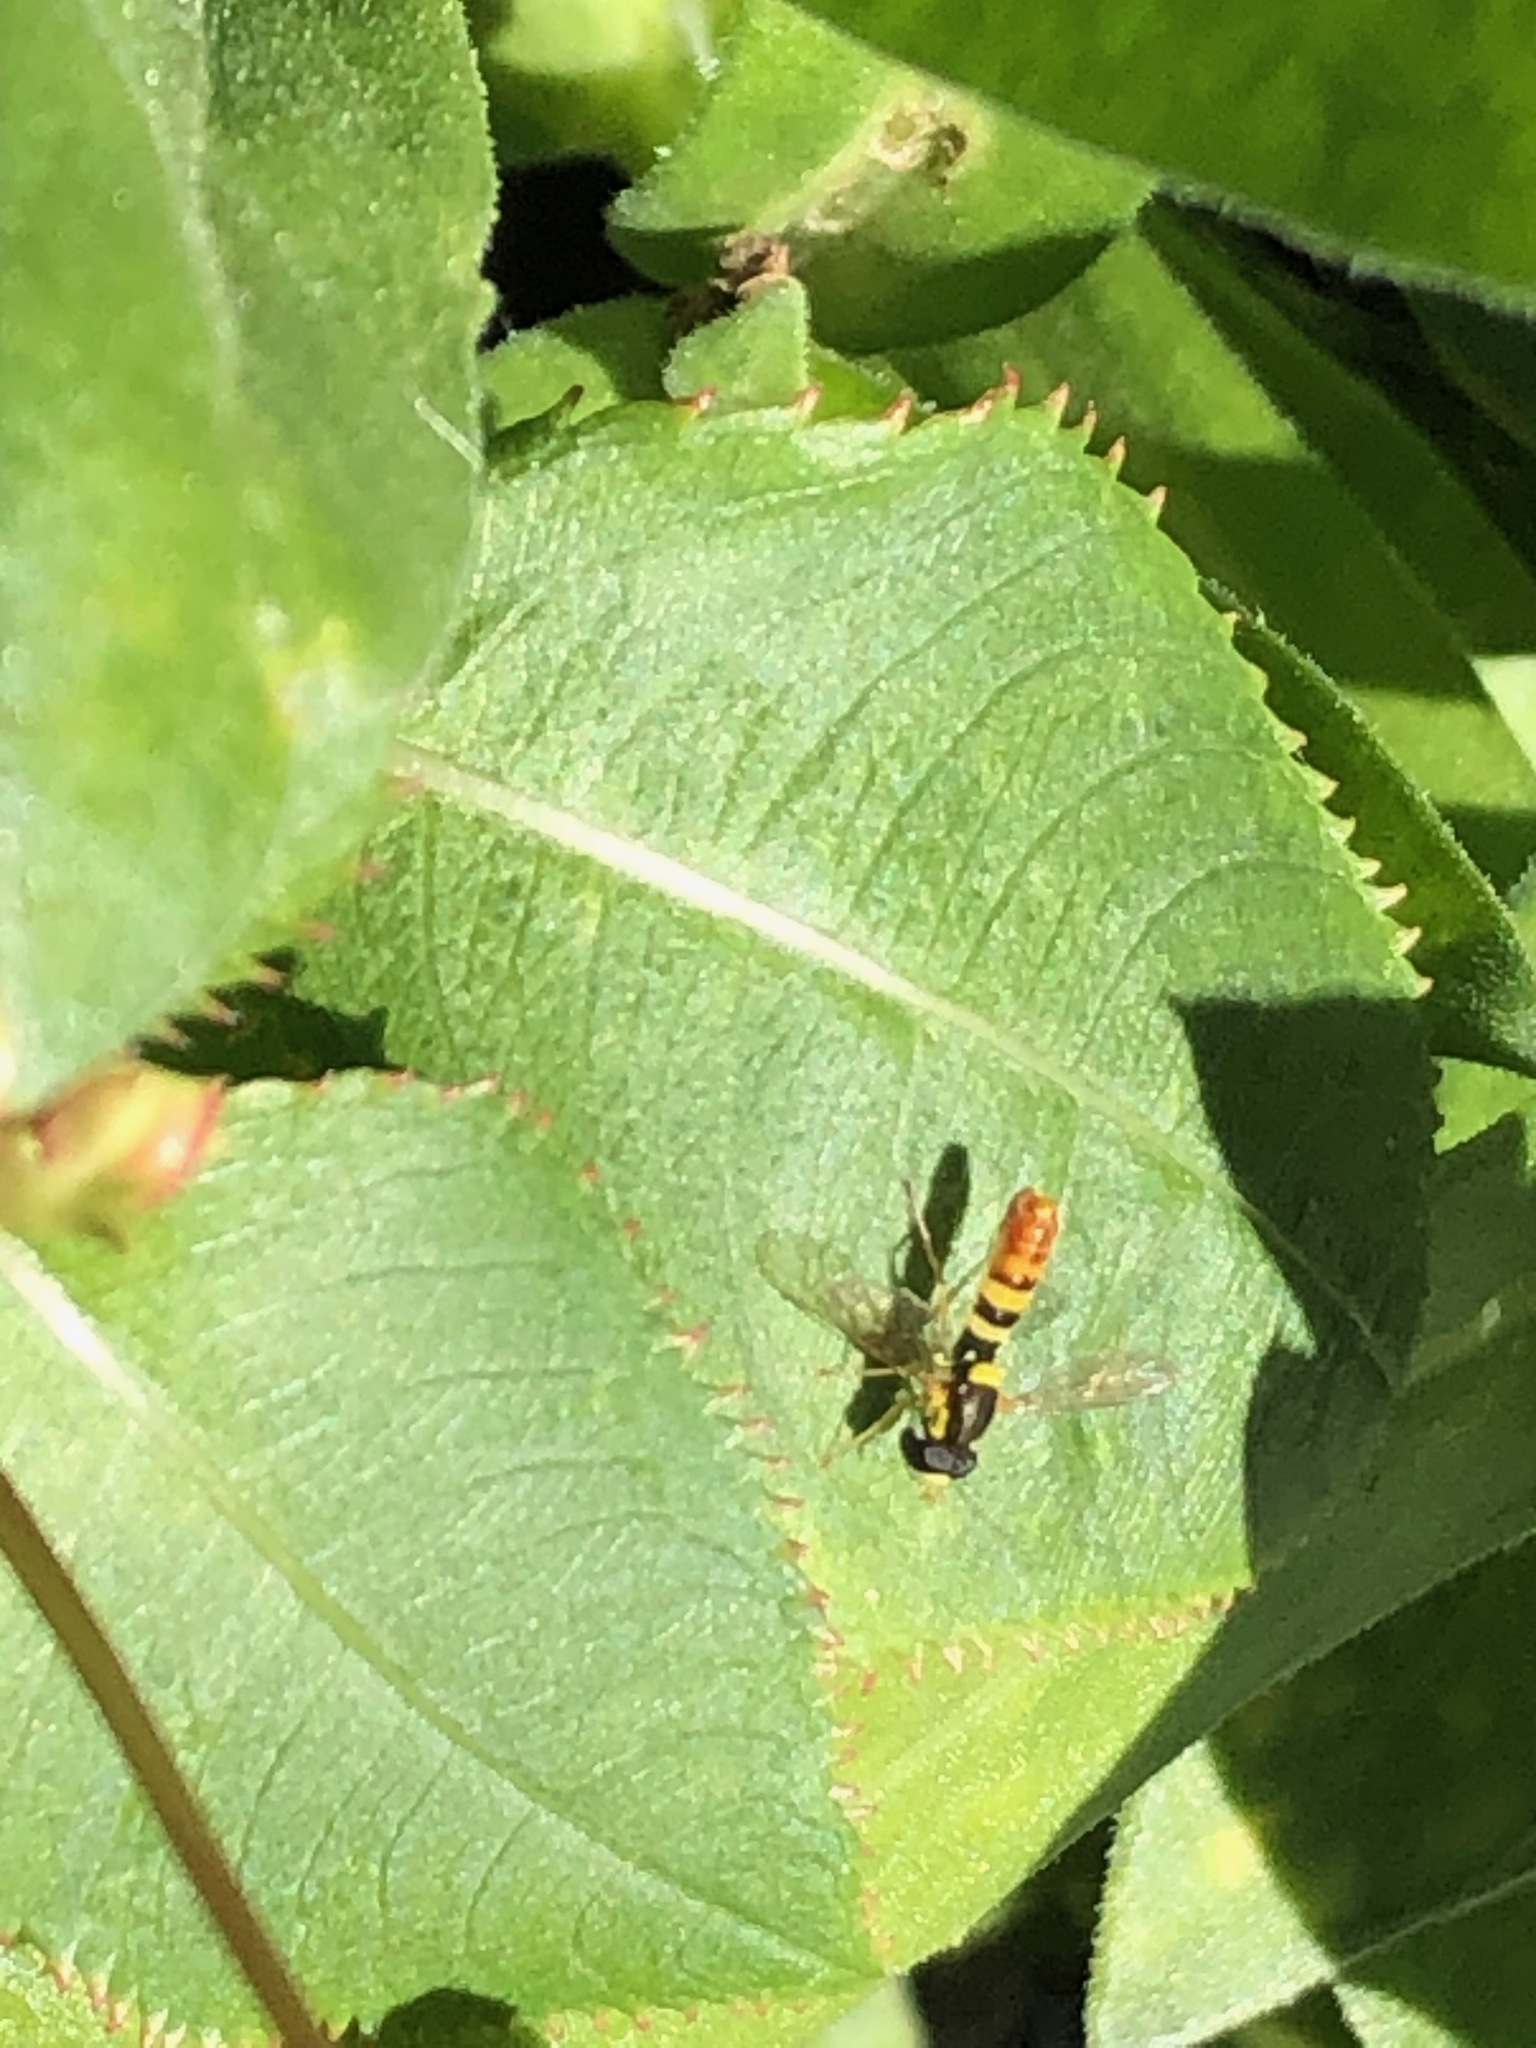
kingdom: Animalia
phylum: Arthropoda
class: Insecta
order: Diptera
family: Syrphidae
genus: Sphaerophoria
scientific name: Sphaerophoria sulphuripes
